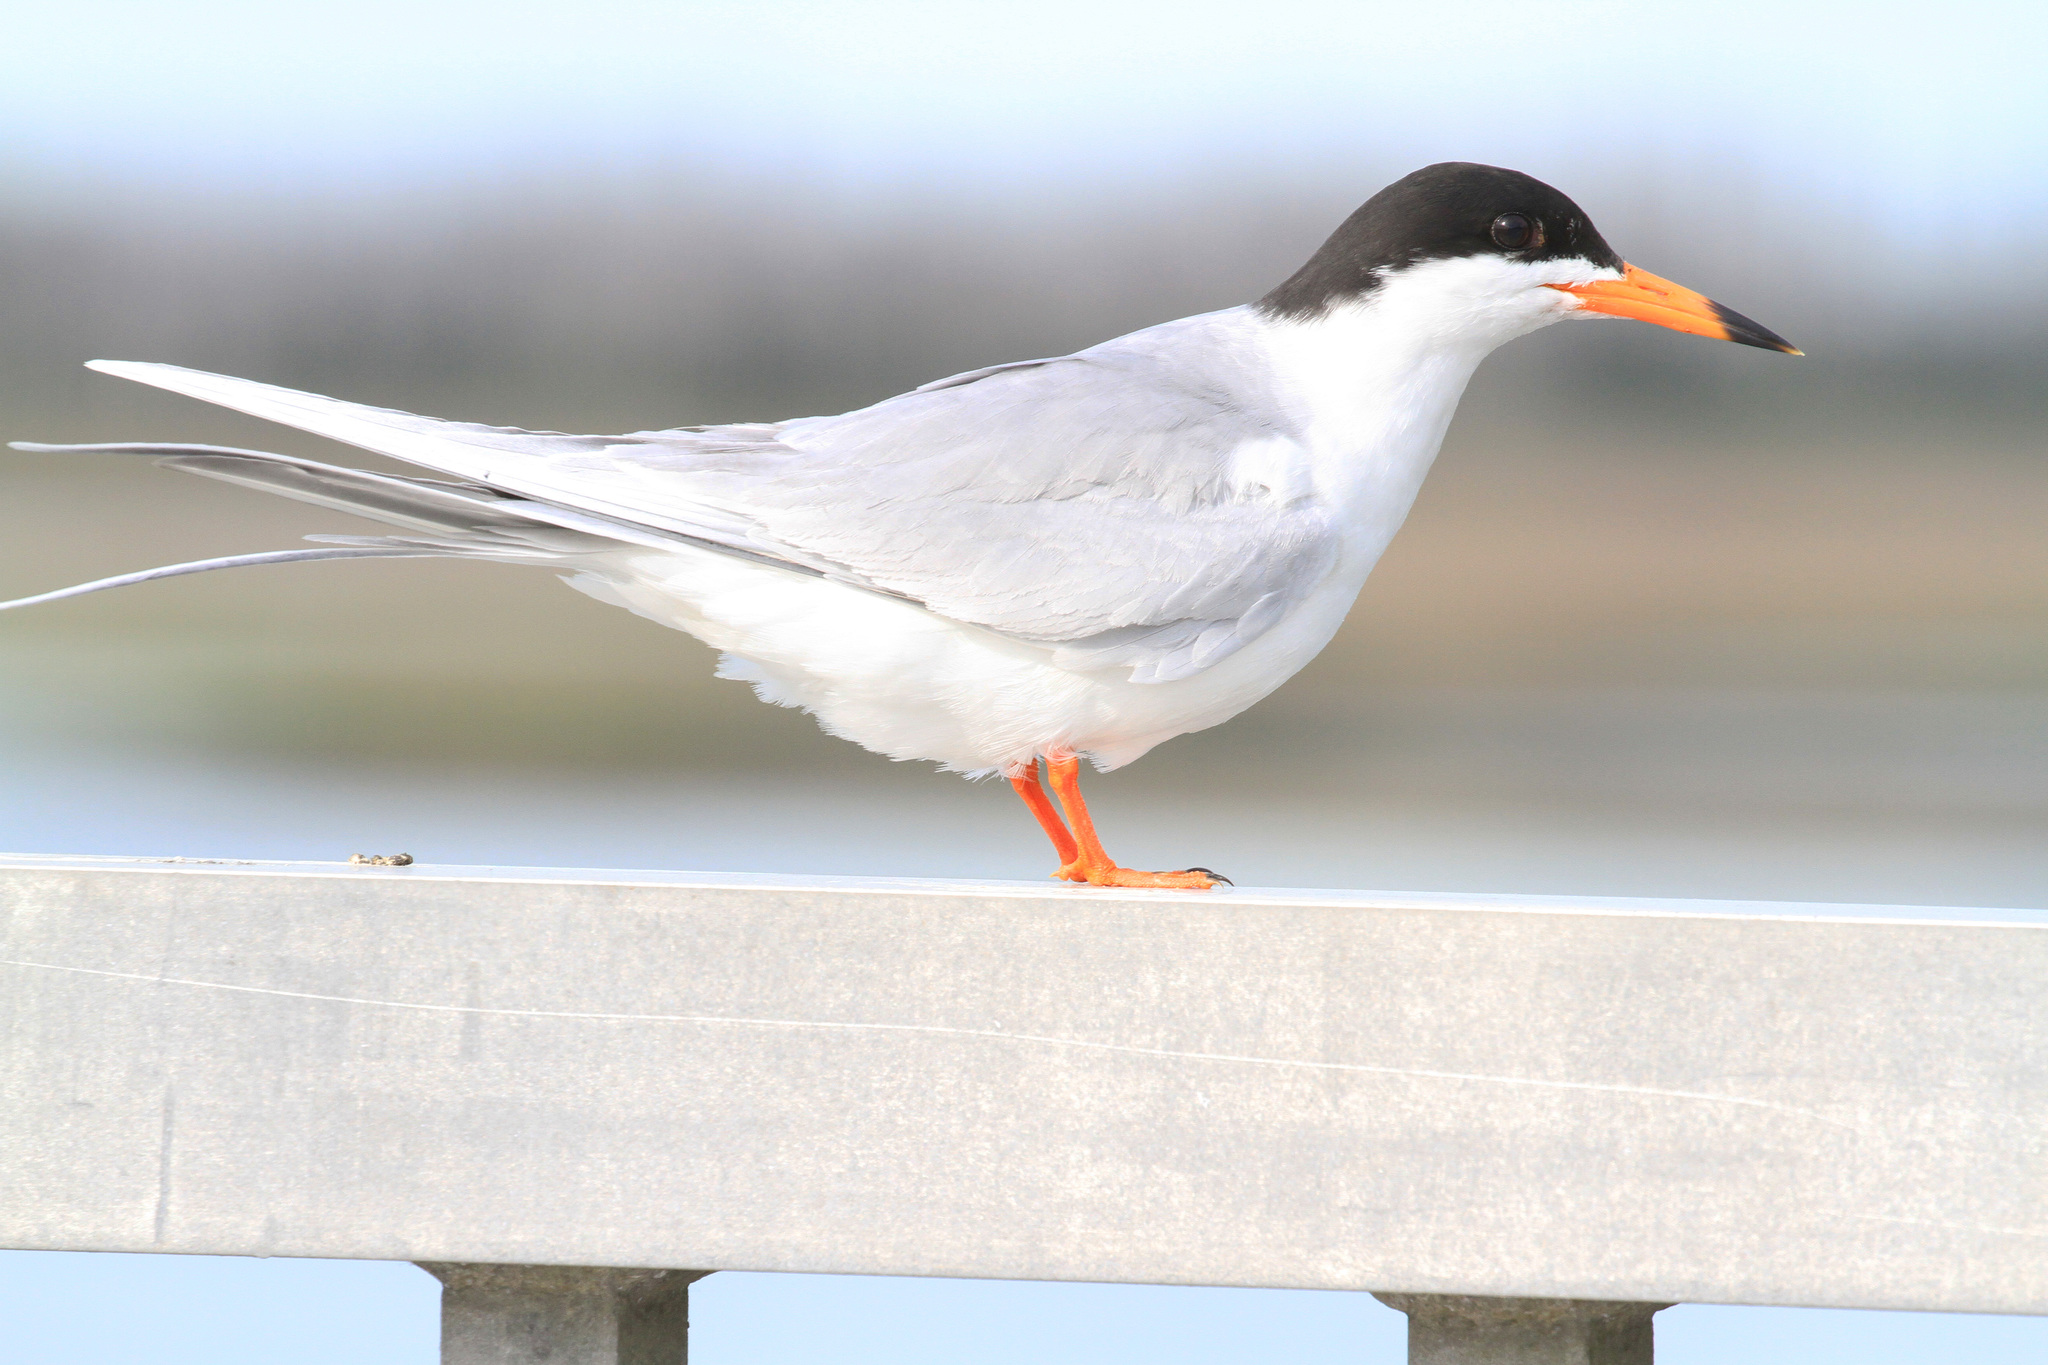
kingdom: Animalia
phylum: Chordata
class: Aves
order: Charadriiformes
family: Laridae
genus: Sterna
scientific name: Sterna forsteri
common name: Forster's tern
